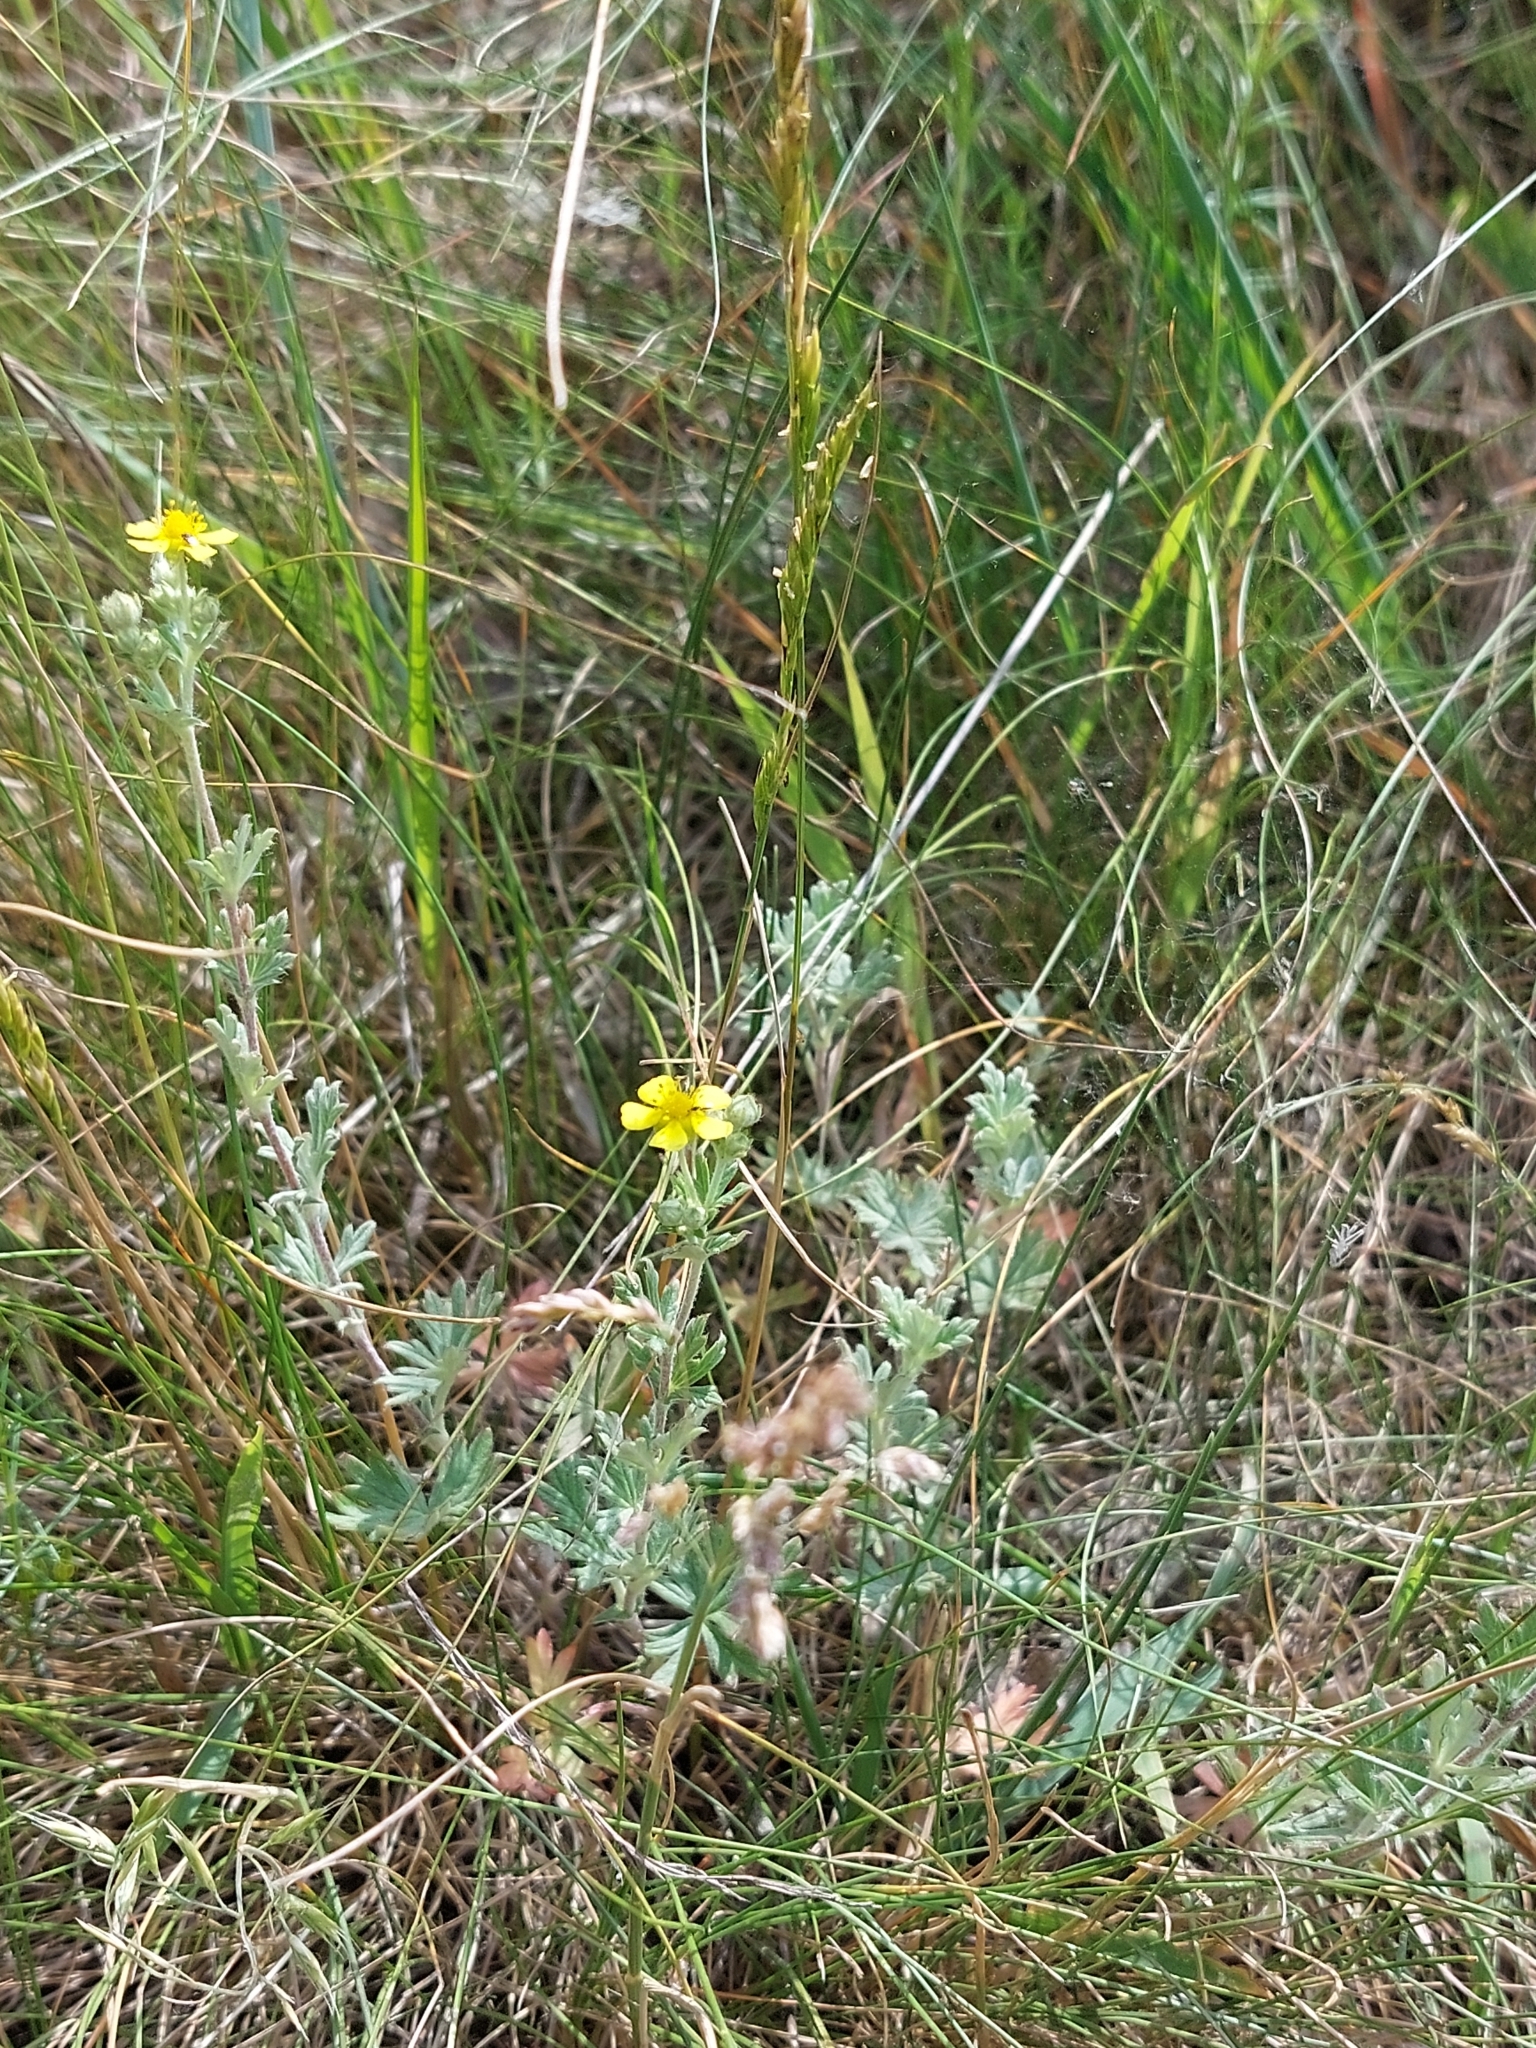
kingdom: Plantae
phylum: Tracheophyta
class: Magnoliopsida
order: Rosales
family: Rosaceae
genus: Potentilla
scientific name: Potentilla argentea
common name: Hoary cinquefoil
